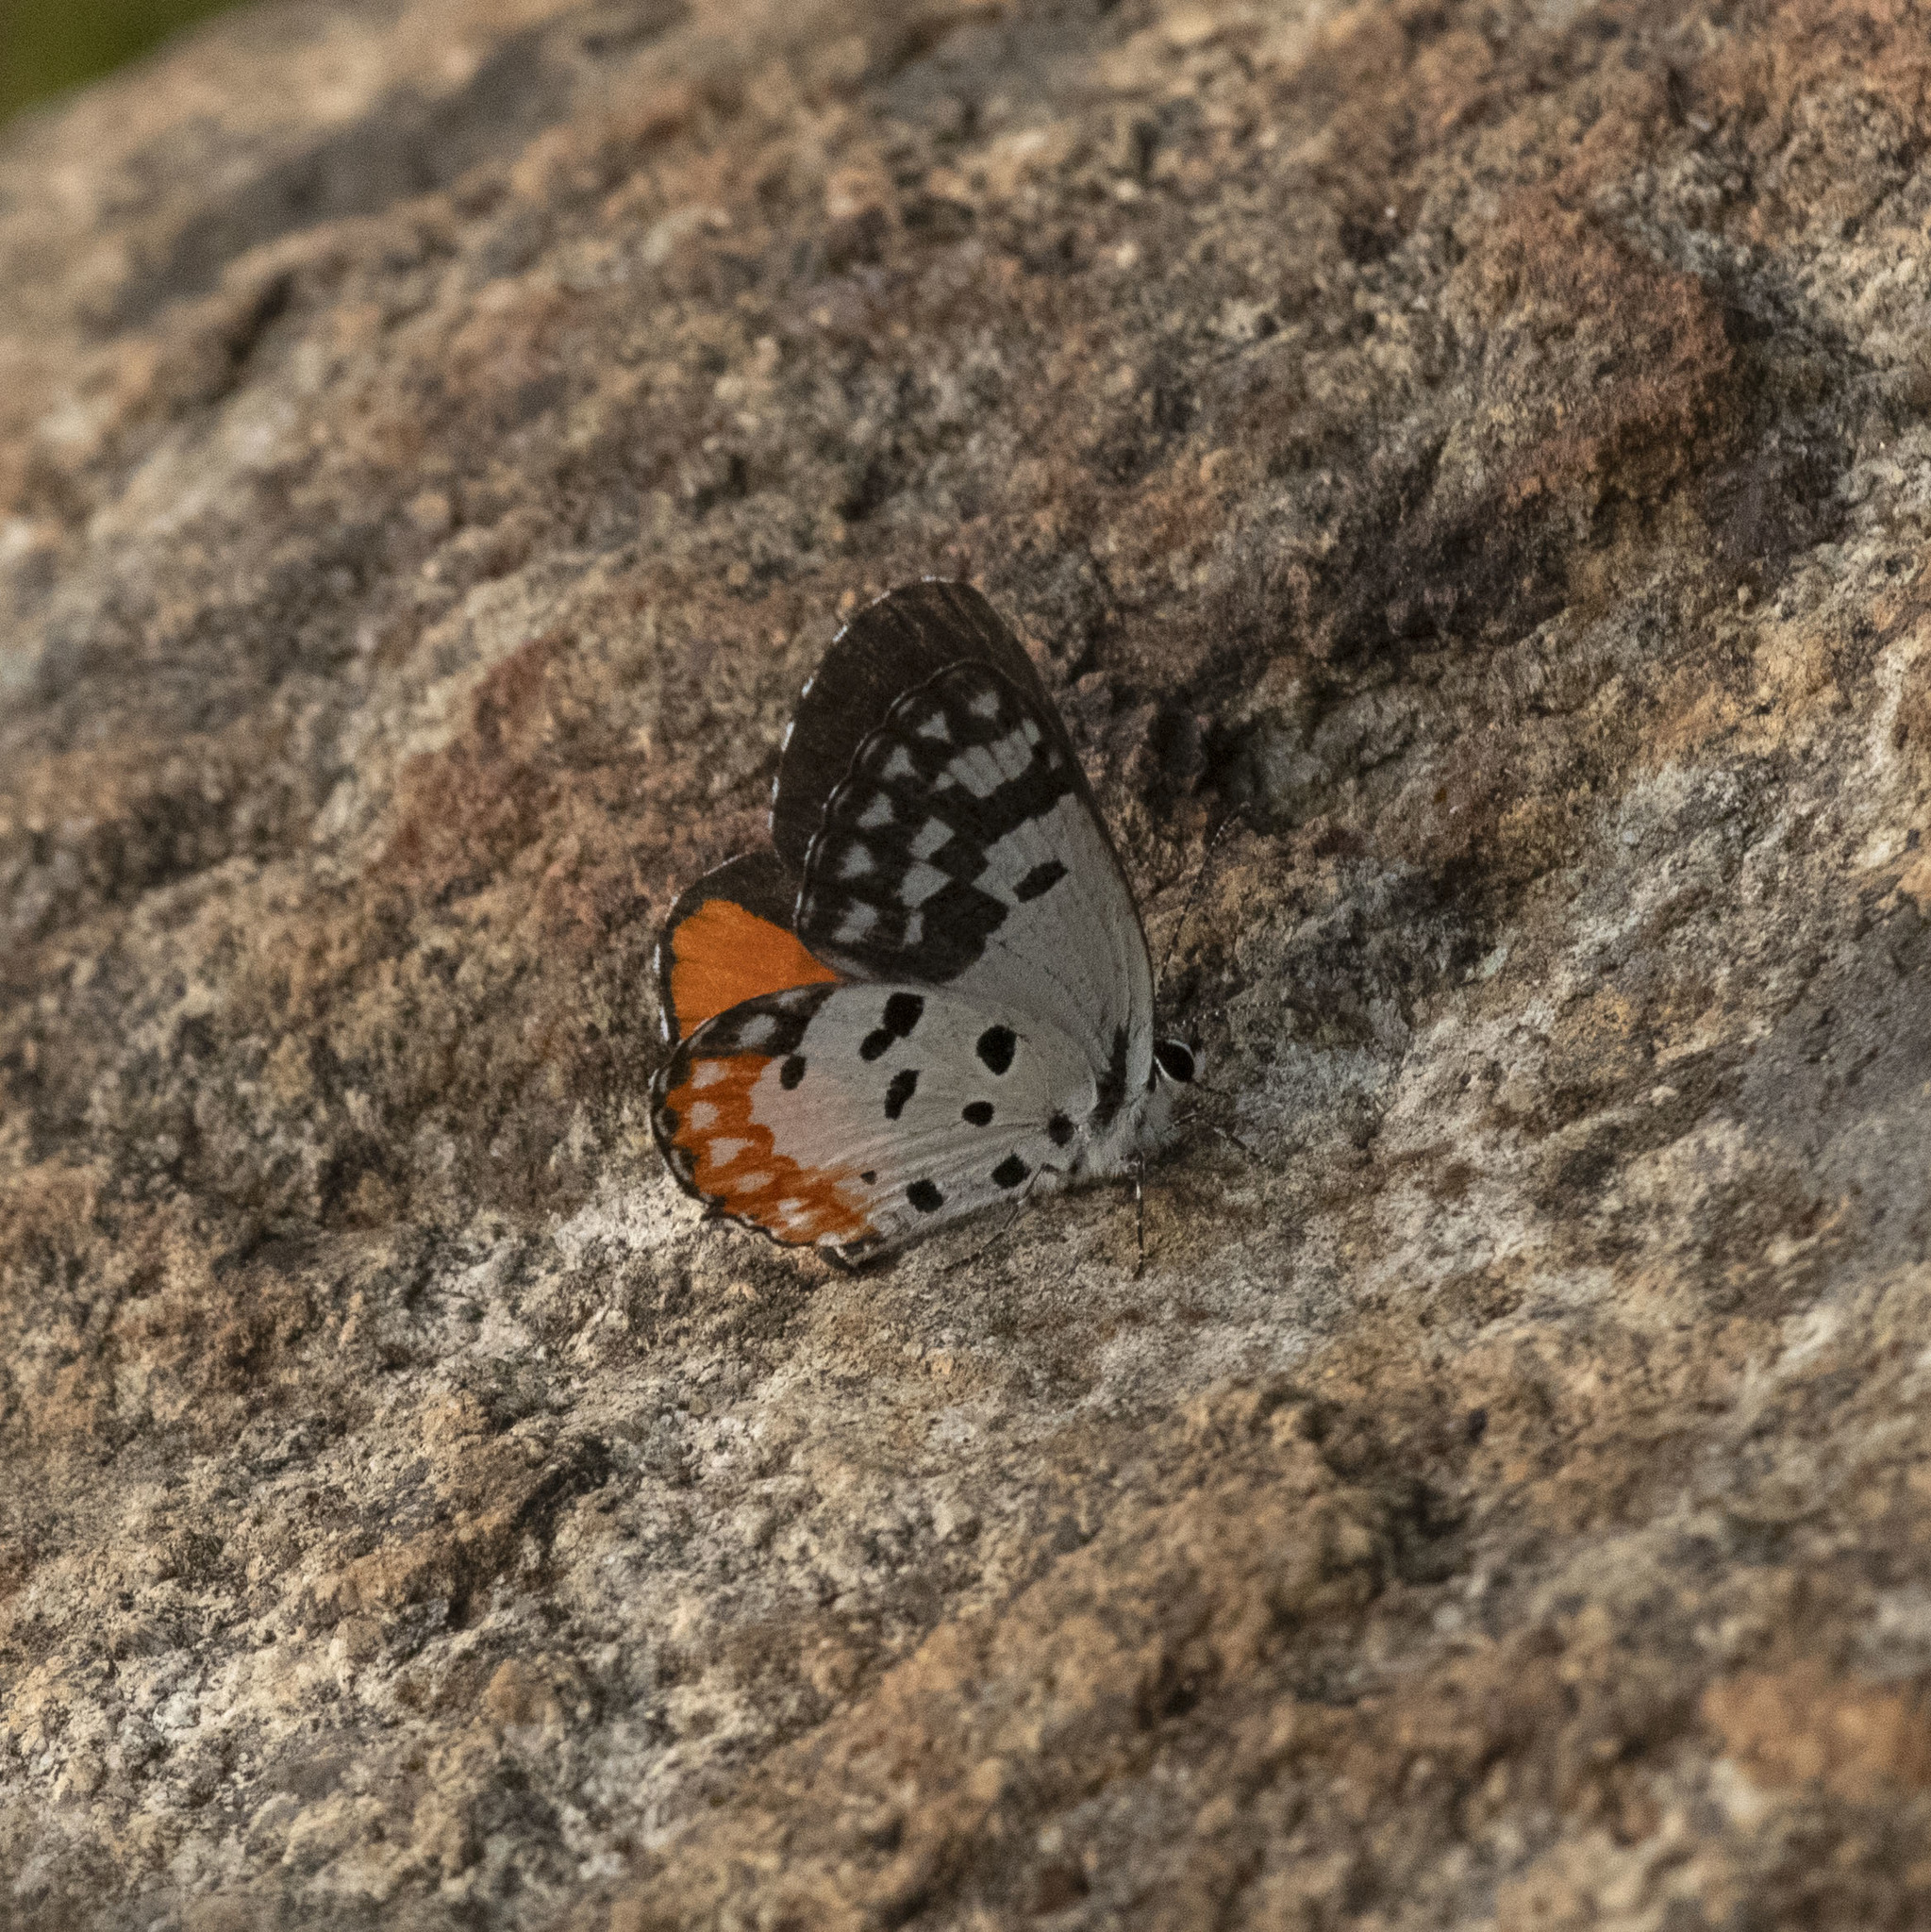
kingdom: Animalia
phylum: Arthropoda
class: Insecta
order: Lepidoptera
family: Lycaenidae
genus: Talicada
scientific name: Talicada nyseus
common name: Red pierrot
